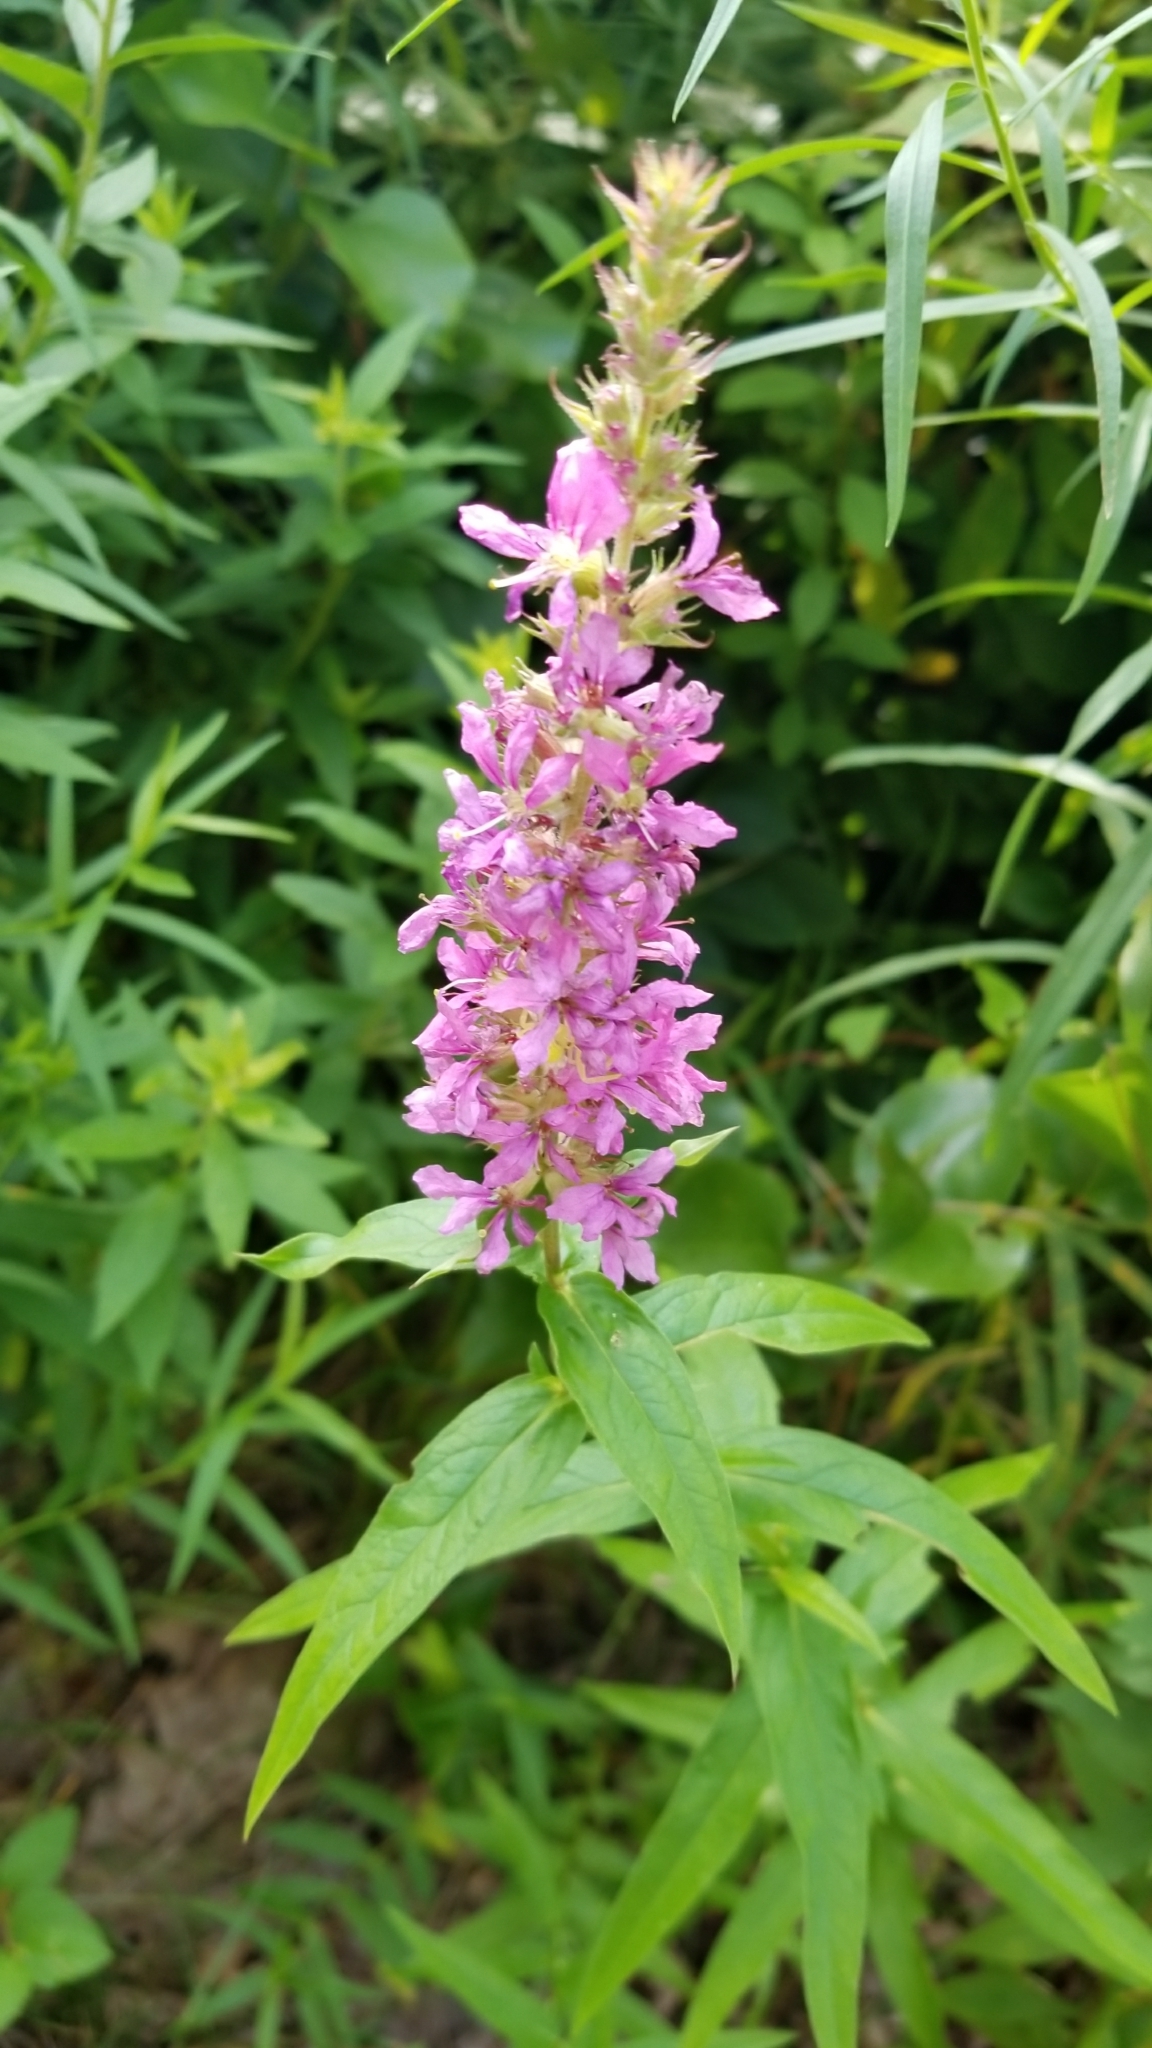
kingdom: Plantae
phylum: Tracheophyta
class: Magnoliopsida
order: Myrtales
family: Lythraceae
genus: Lythrum
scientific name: Lythrum salicaria
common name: Purple loosestrife
